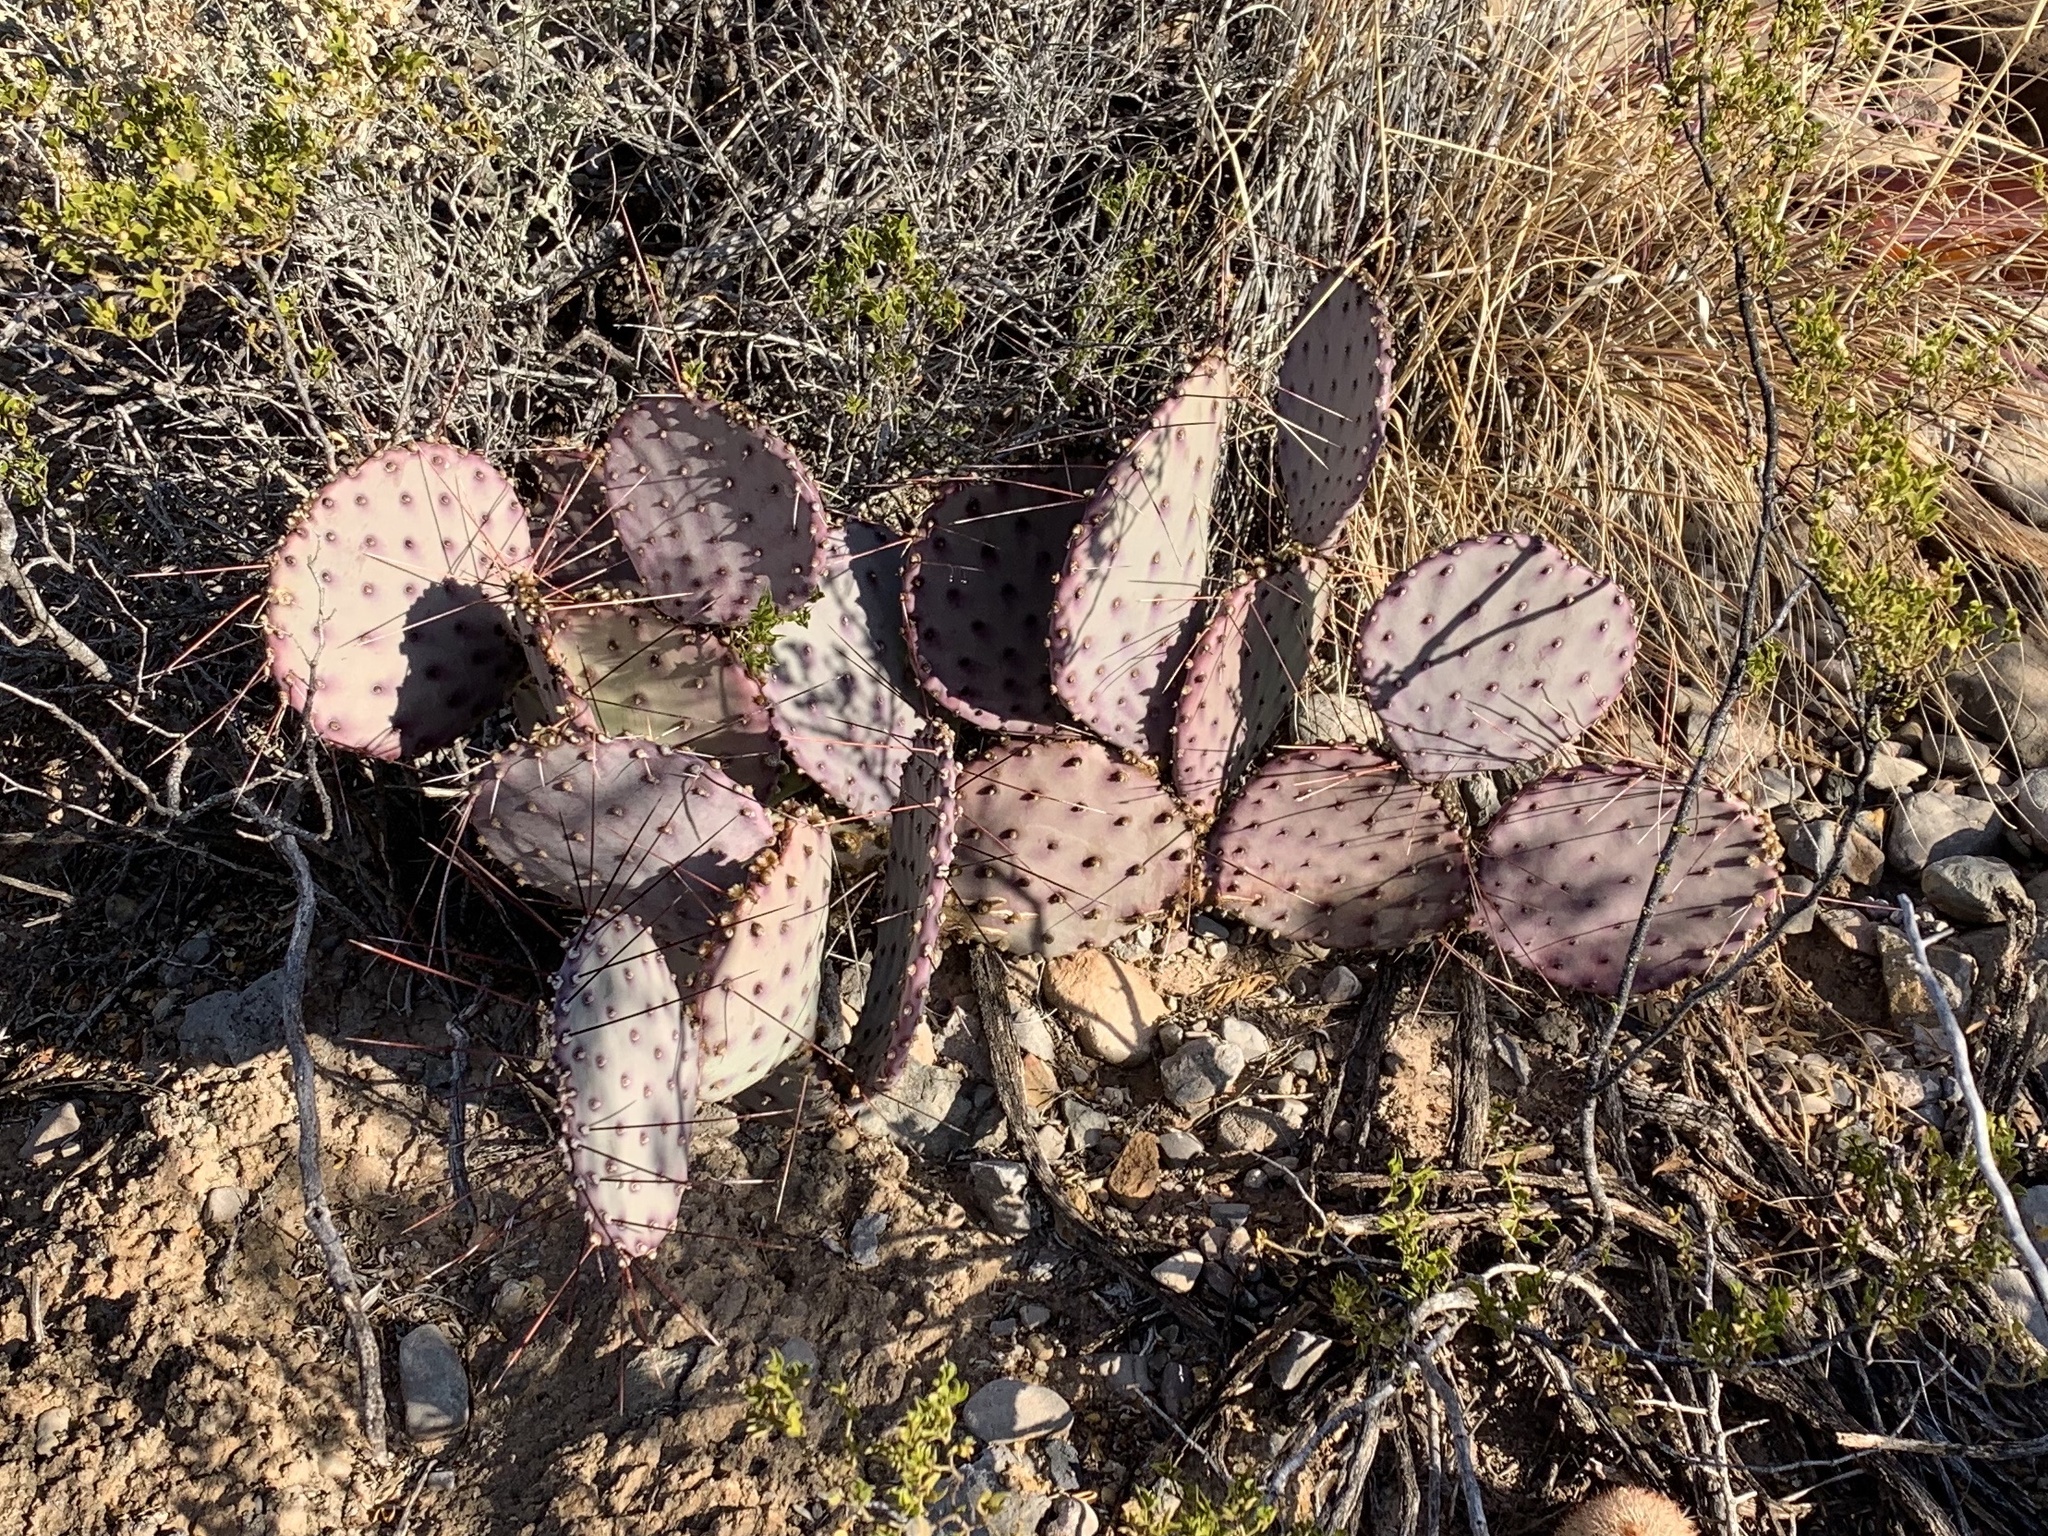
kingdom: Plantae
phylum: Tracheophyta
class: Magnoliopsida
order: Caryophyllales
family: Cactaceae
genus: Opuntia
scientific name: Opuntia macrocentra
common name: Purple prickly-pear
